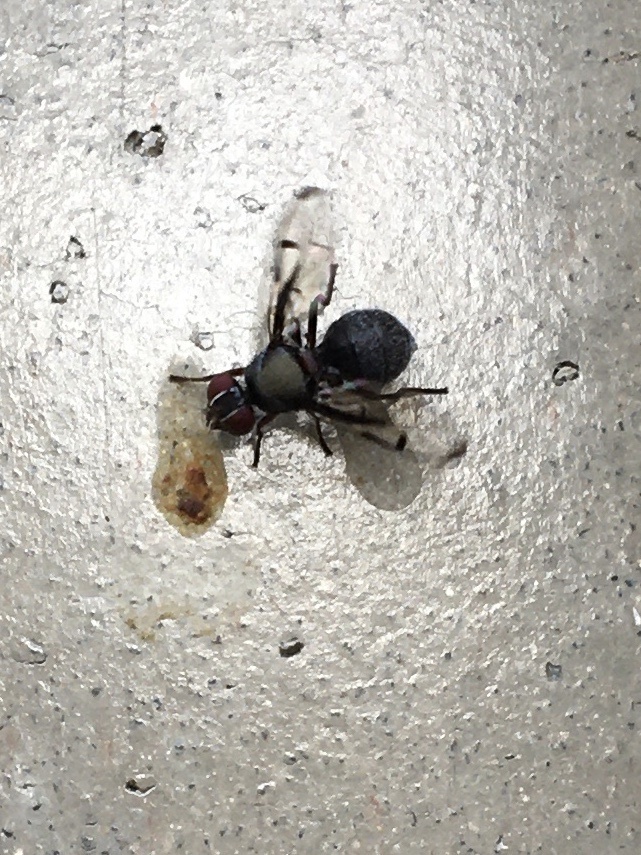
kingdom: Animalia
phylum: Arthropoda
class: Insecta
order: Diptera
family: Platystomatidae
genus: Pogonortalis
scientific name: Pogonortalis doclea
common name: Boatman fly
